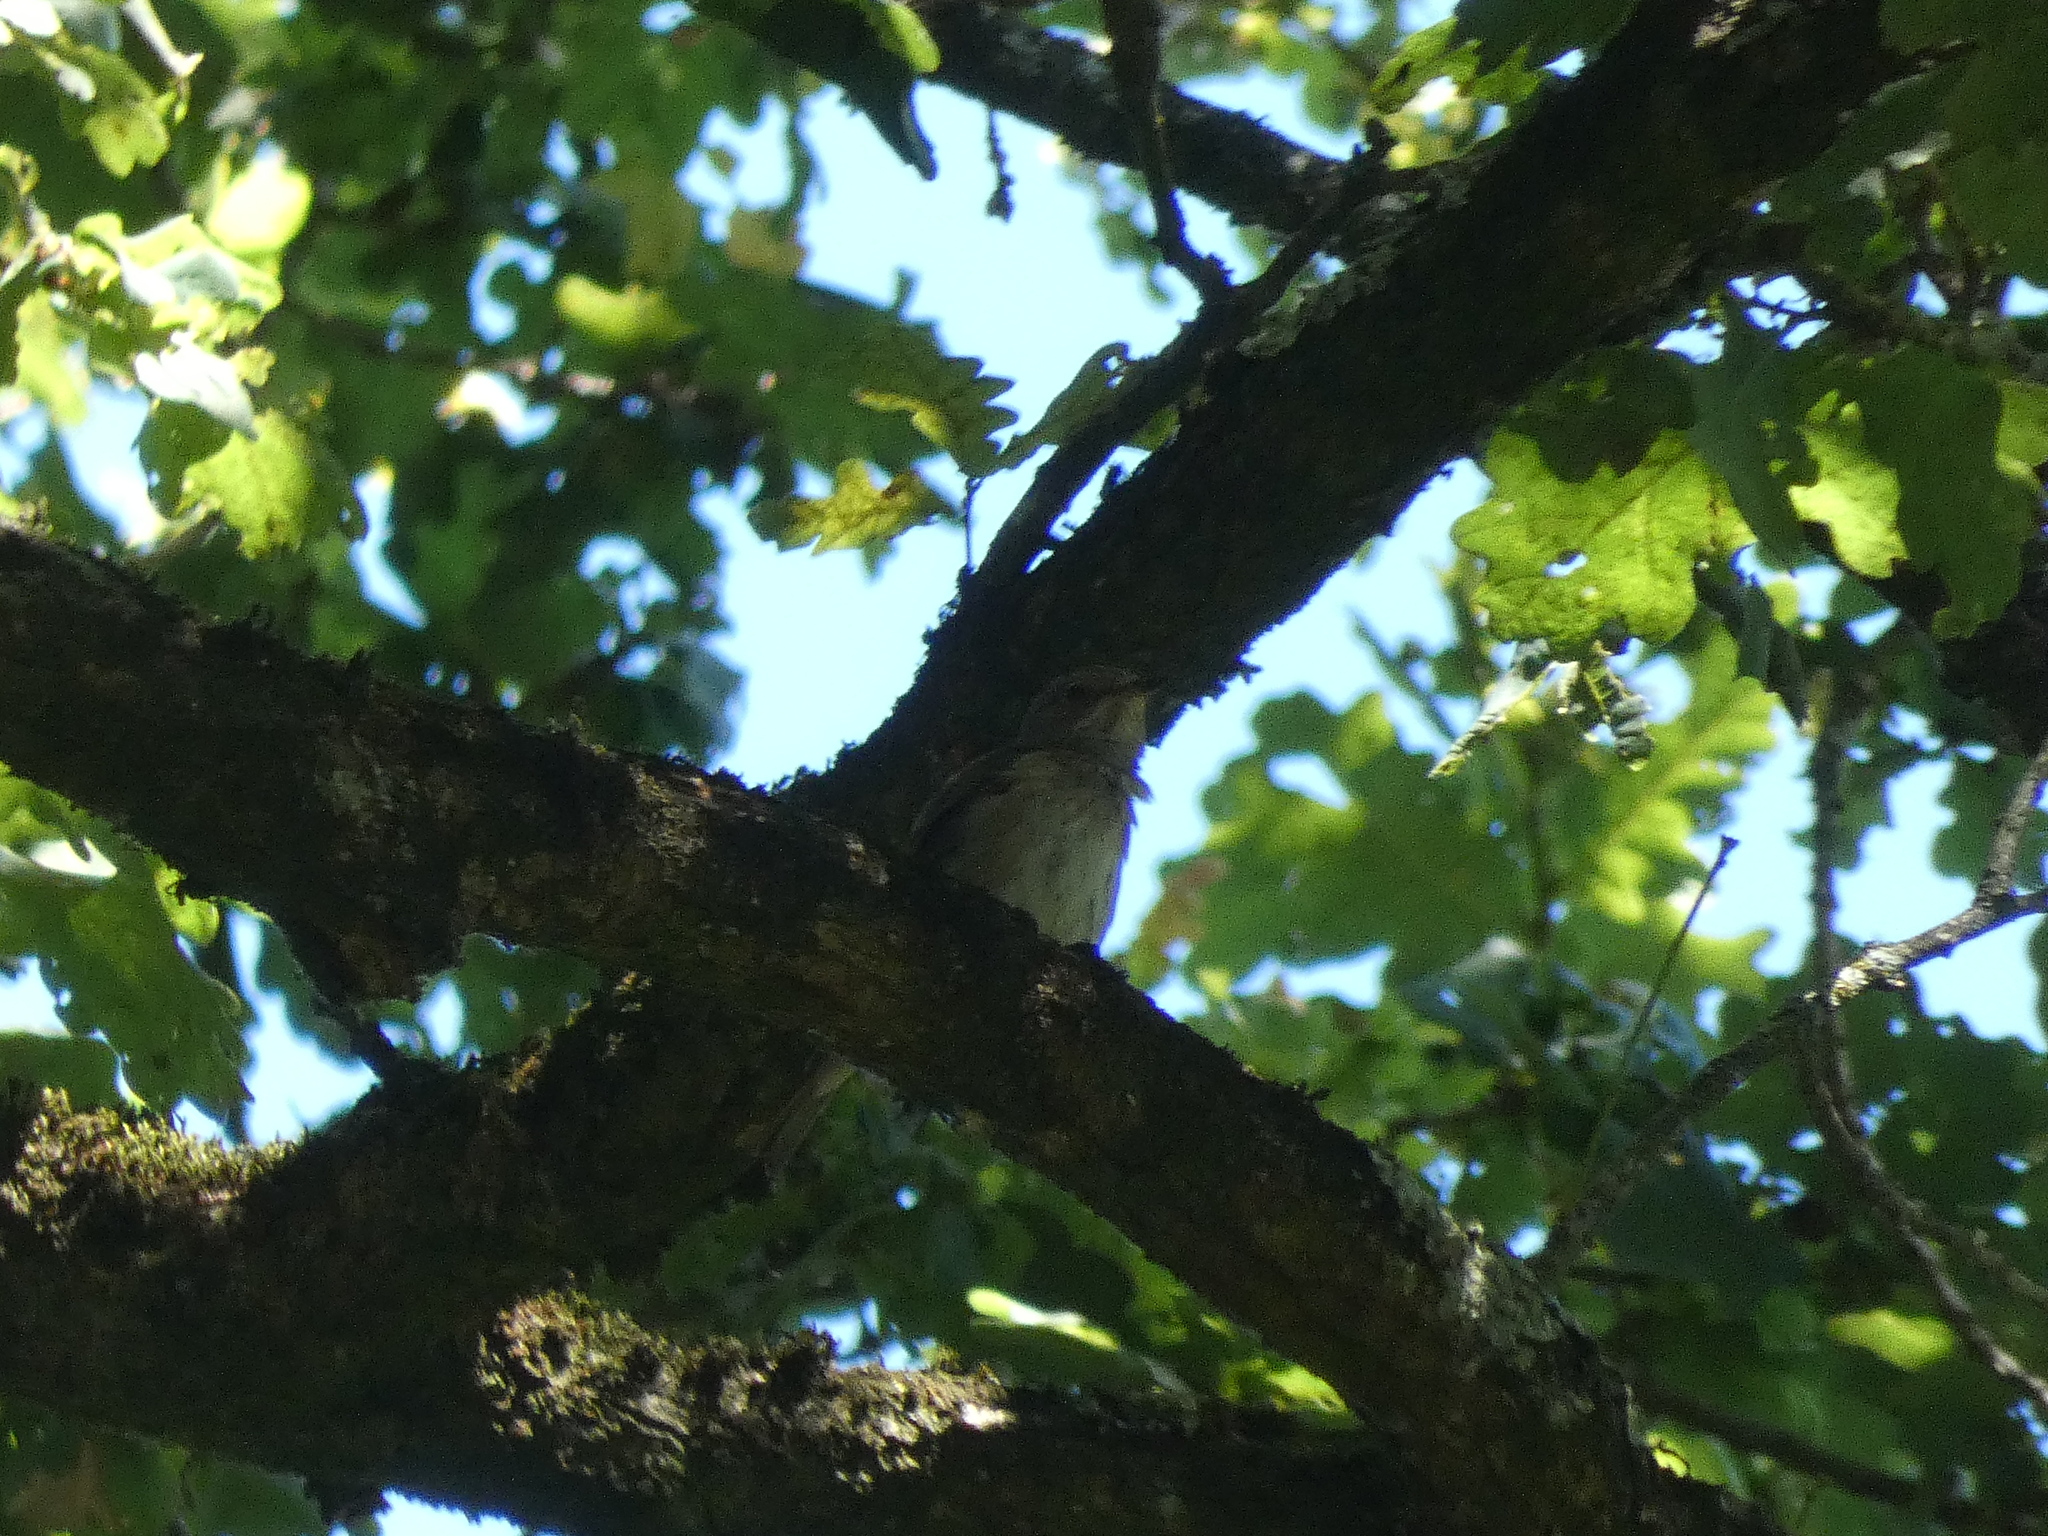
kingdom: Animalia
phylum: Chordata
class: Aves
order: Passeriformes
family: Muscicapidae
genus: Muscicapa
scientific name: Muscicapa striata
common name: Spotted flycatcher
